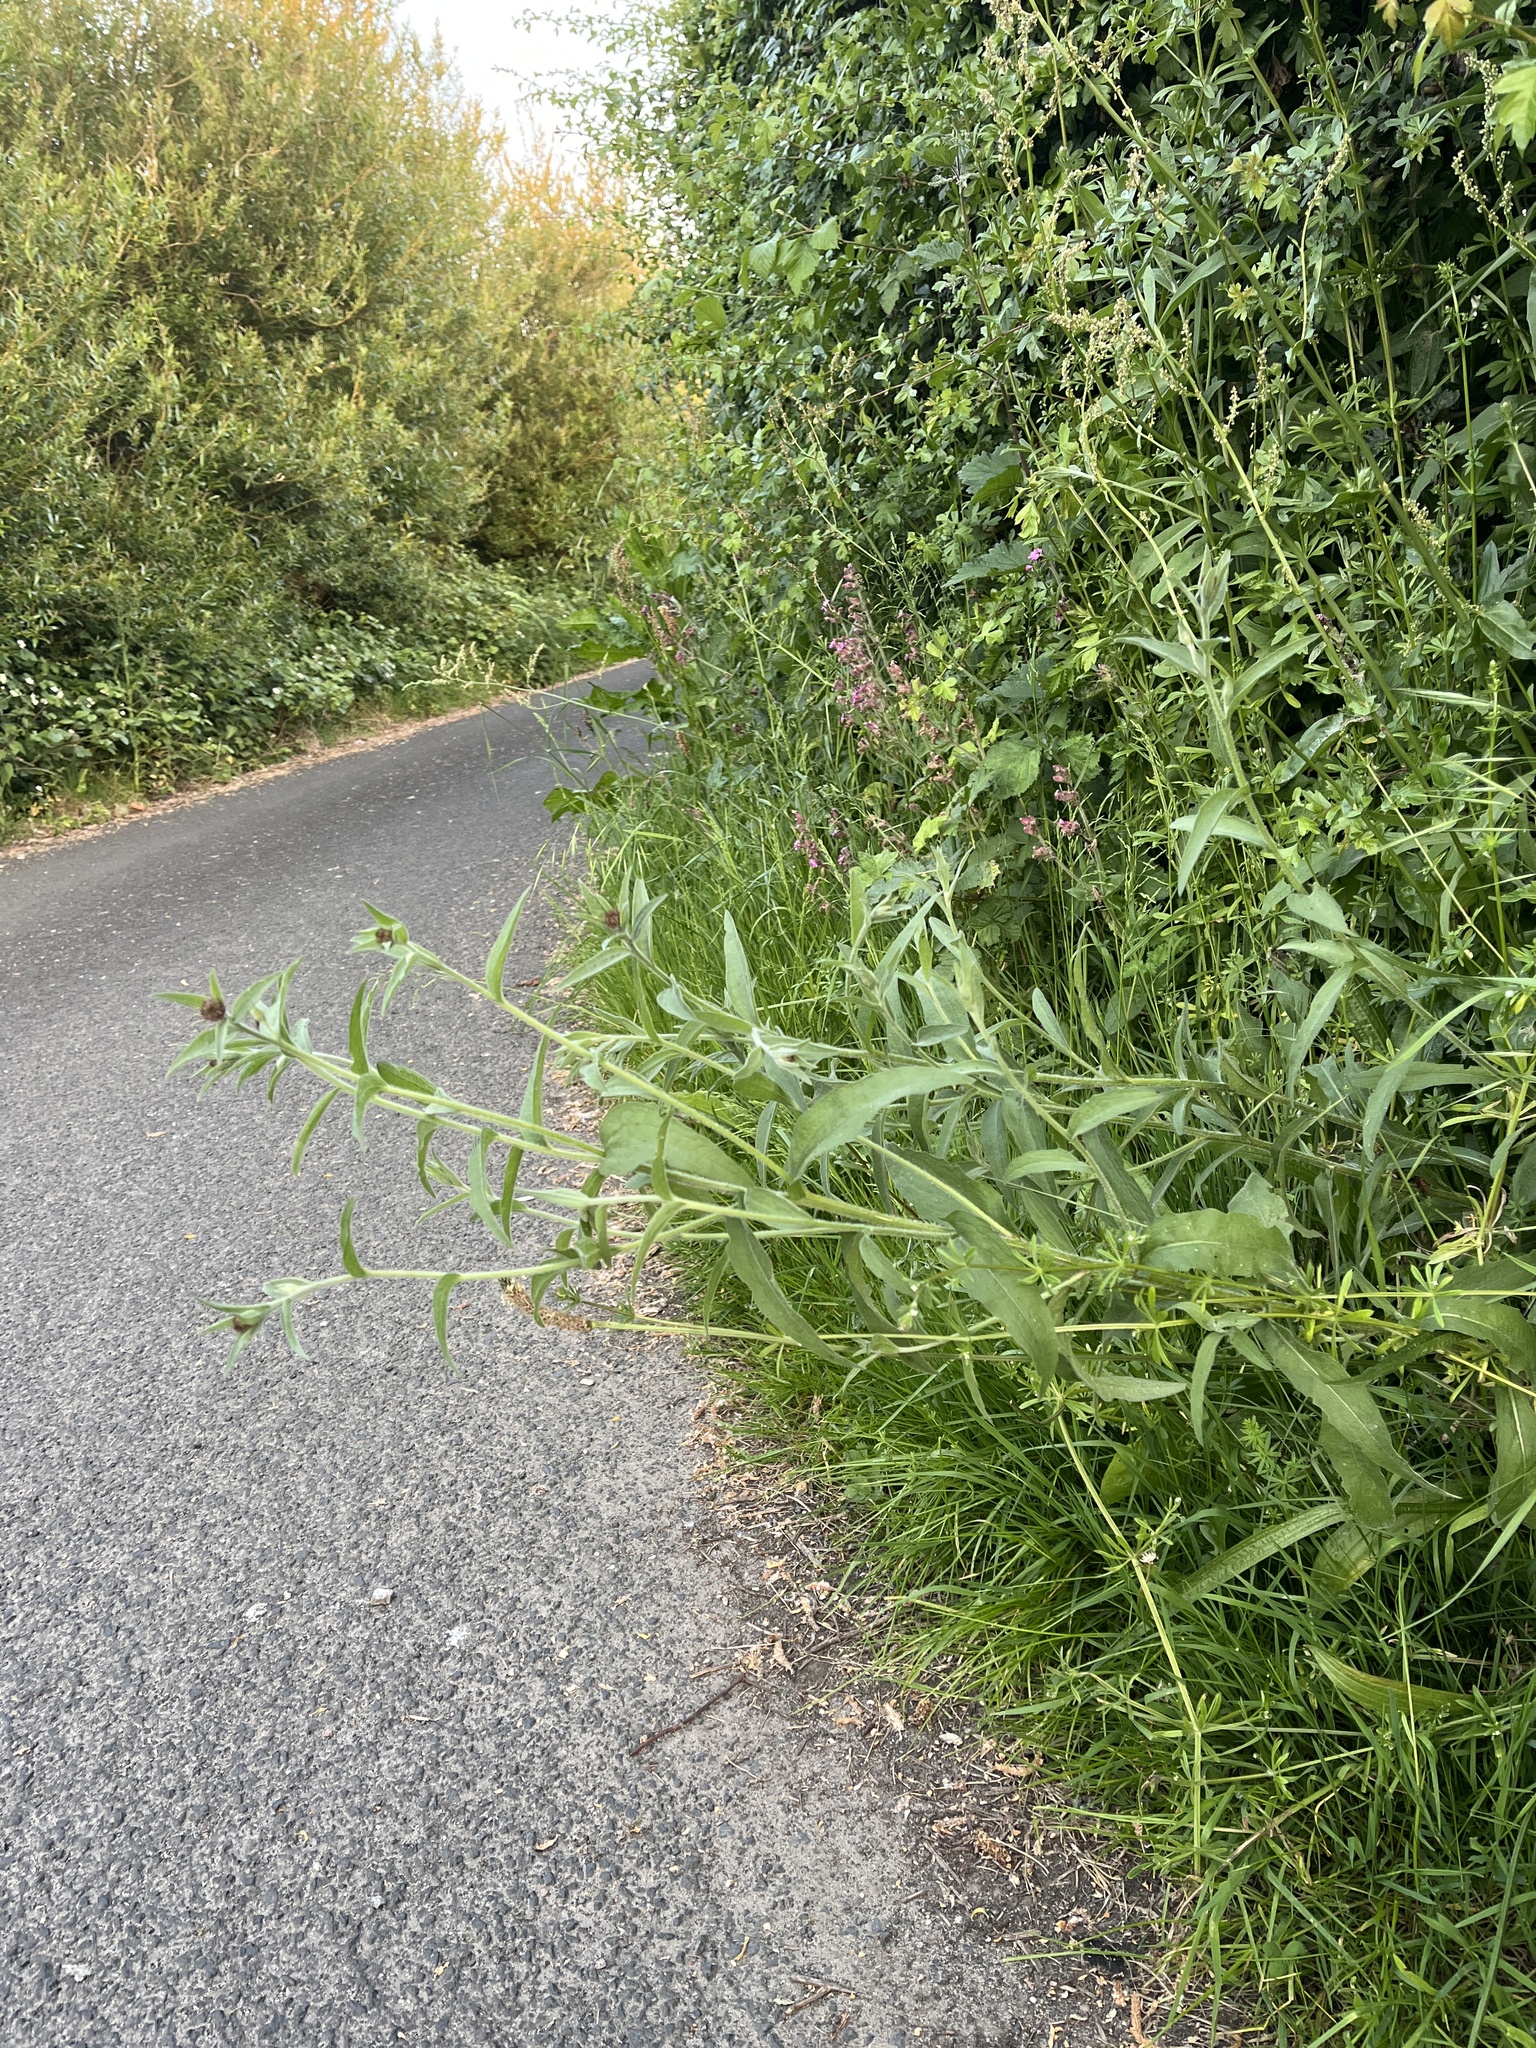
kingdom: Plantae
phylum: Tracheophyta
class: Magnoliopsida
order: Asterales
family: Asteraceae
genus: Centaurea
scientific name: Centaurea nigra
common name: Lesser knapweed
